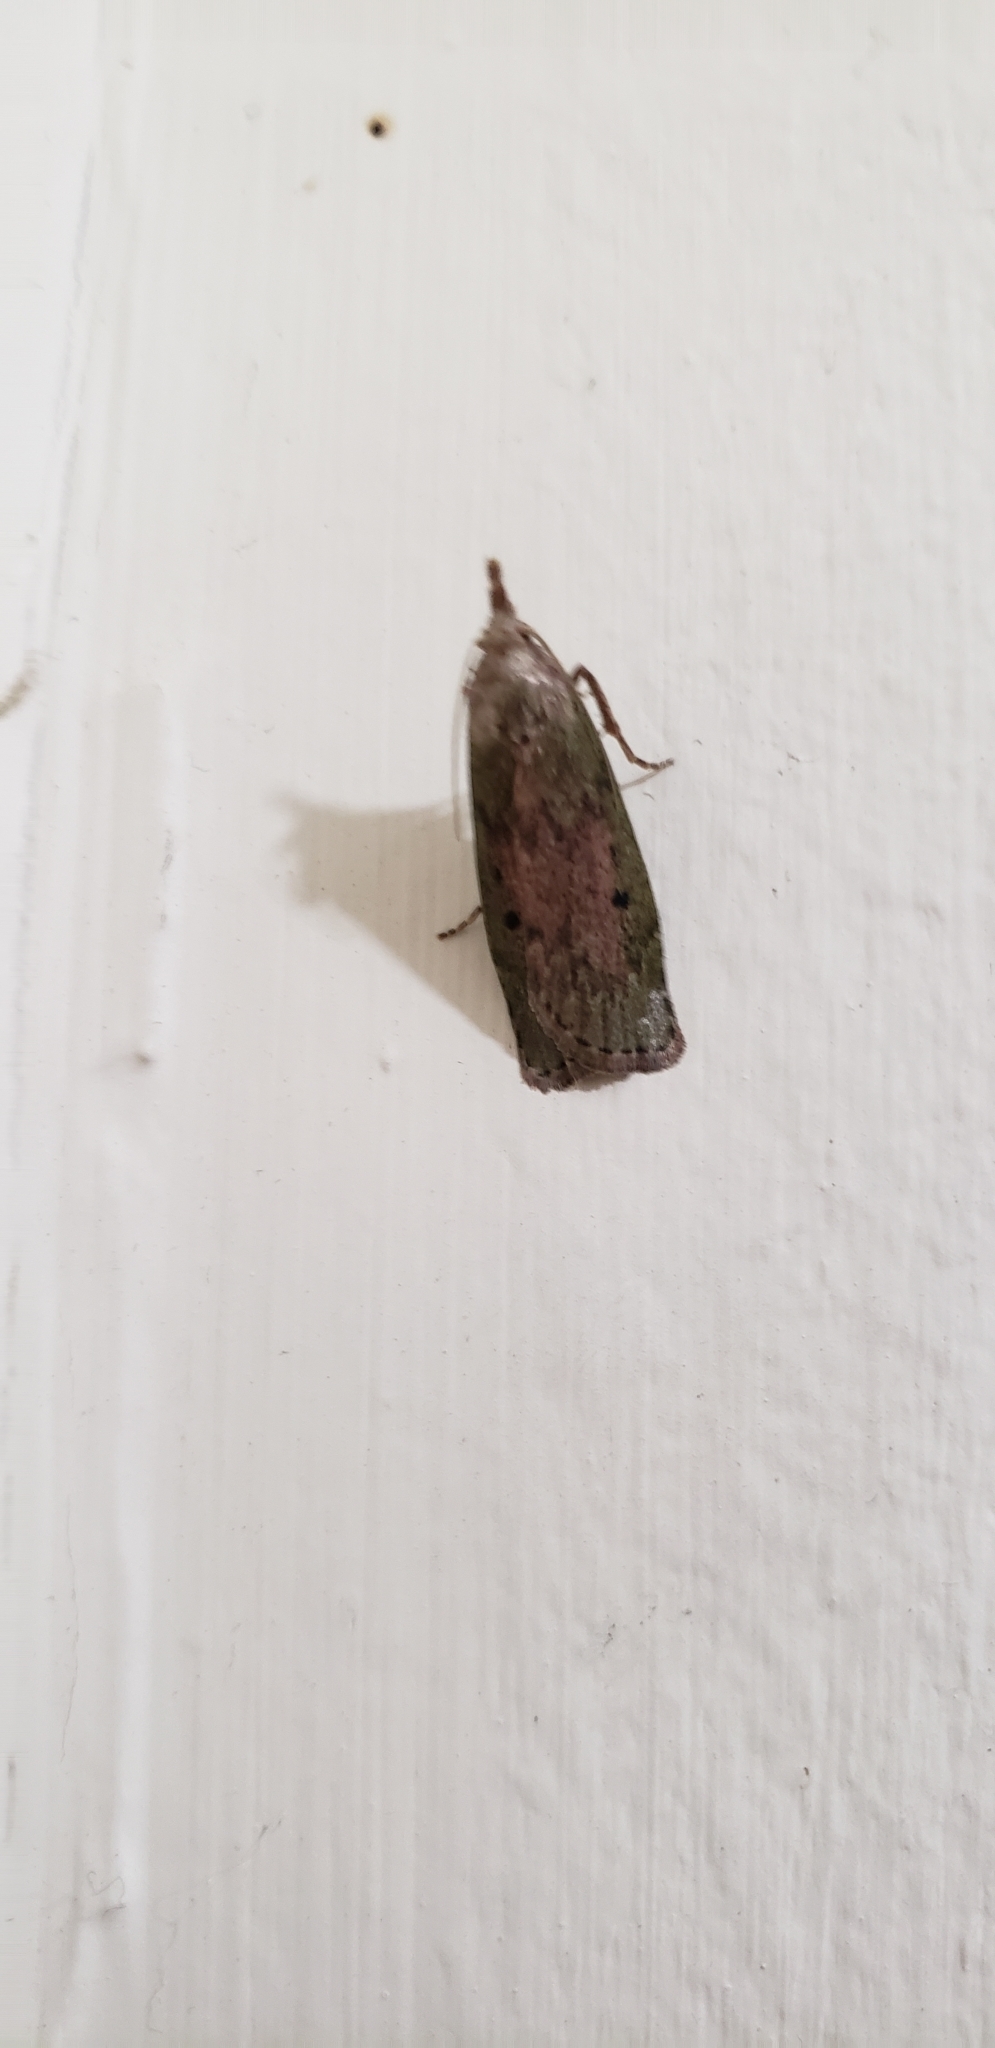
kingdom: Animalia
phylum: Arthropoda
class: Insecta
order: Lepidoptera
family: Pyralidae
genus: Aphomia
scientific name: Aphomia sociella
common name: Bee moth
